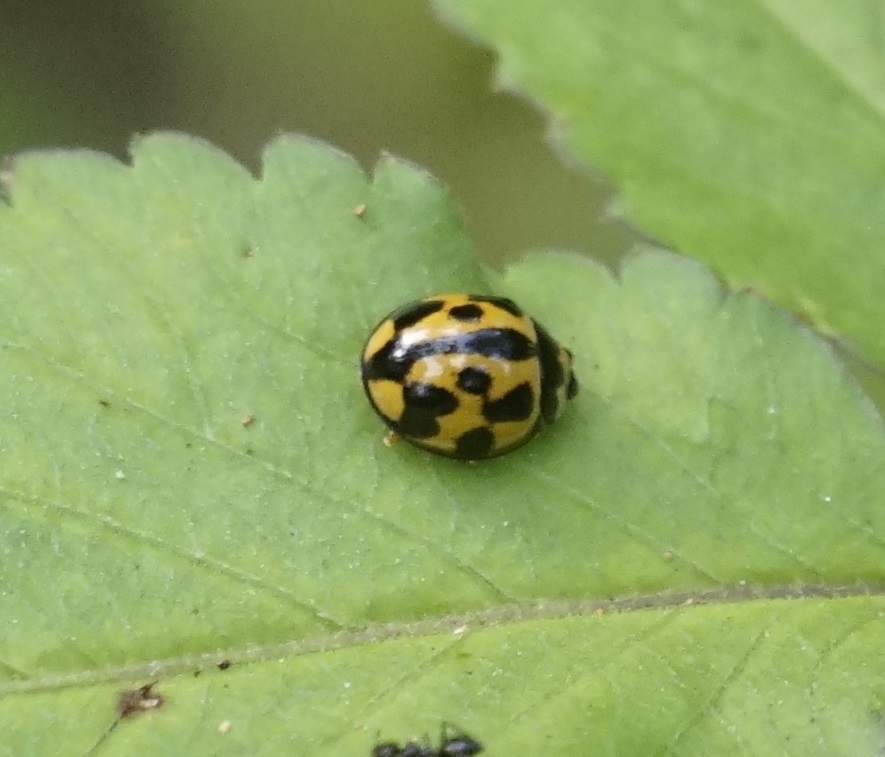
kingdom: Animalia
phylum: Arthropoda
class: Insecta
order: Coleoptera
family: Coccinellidae
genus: Coelophora
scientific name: Coelophora inaequalis
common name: Common australian lady beetle
